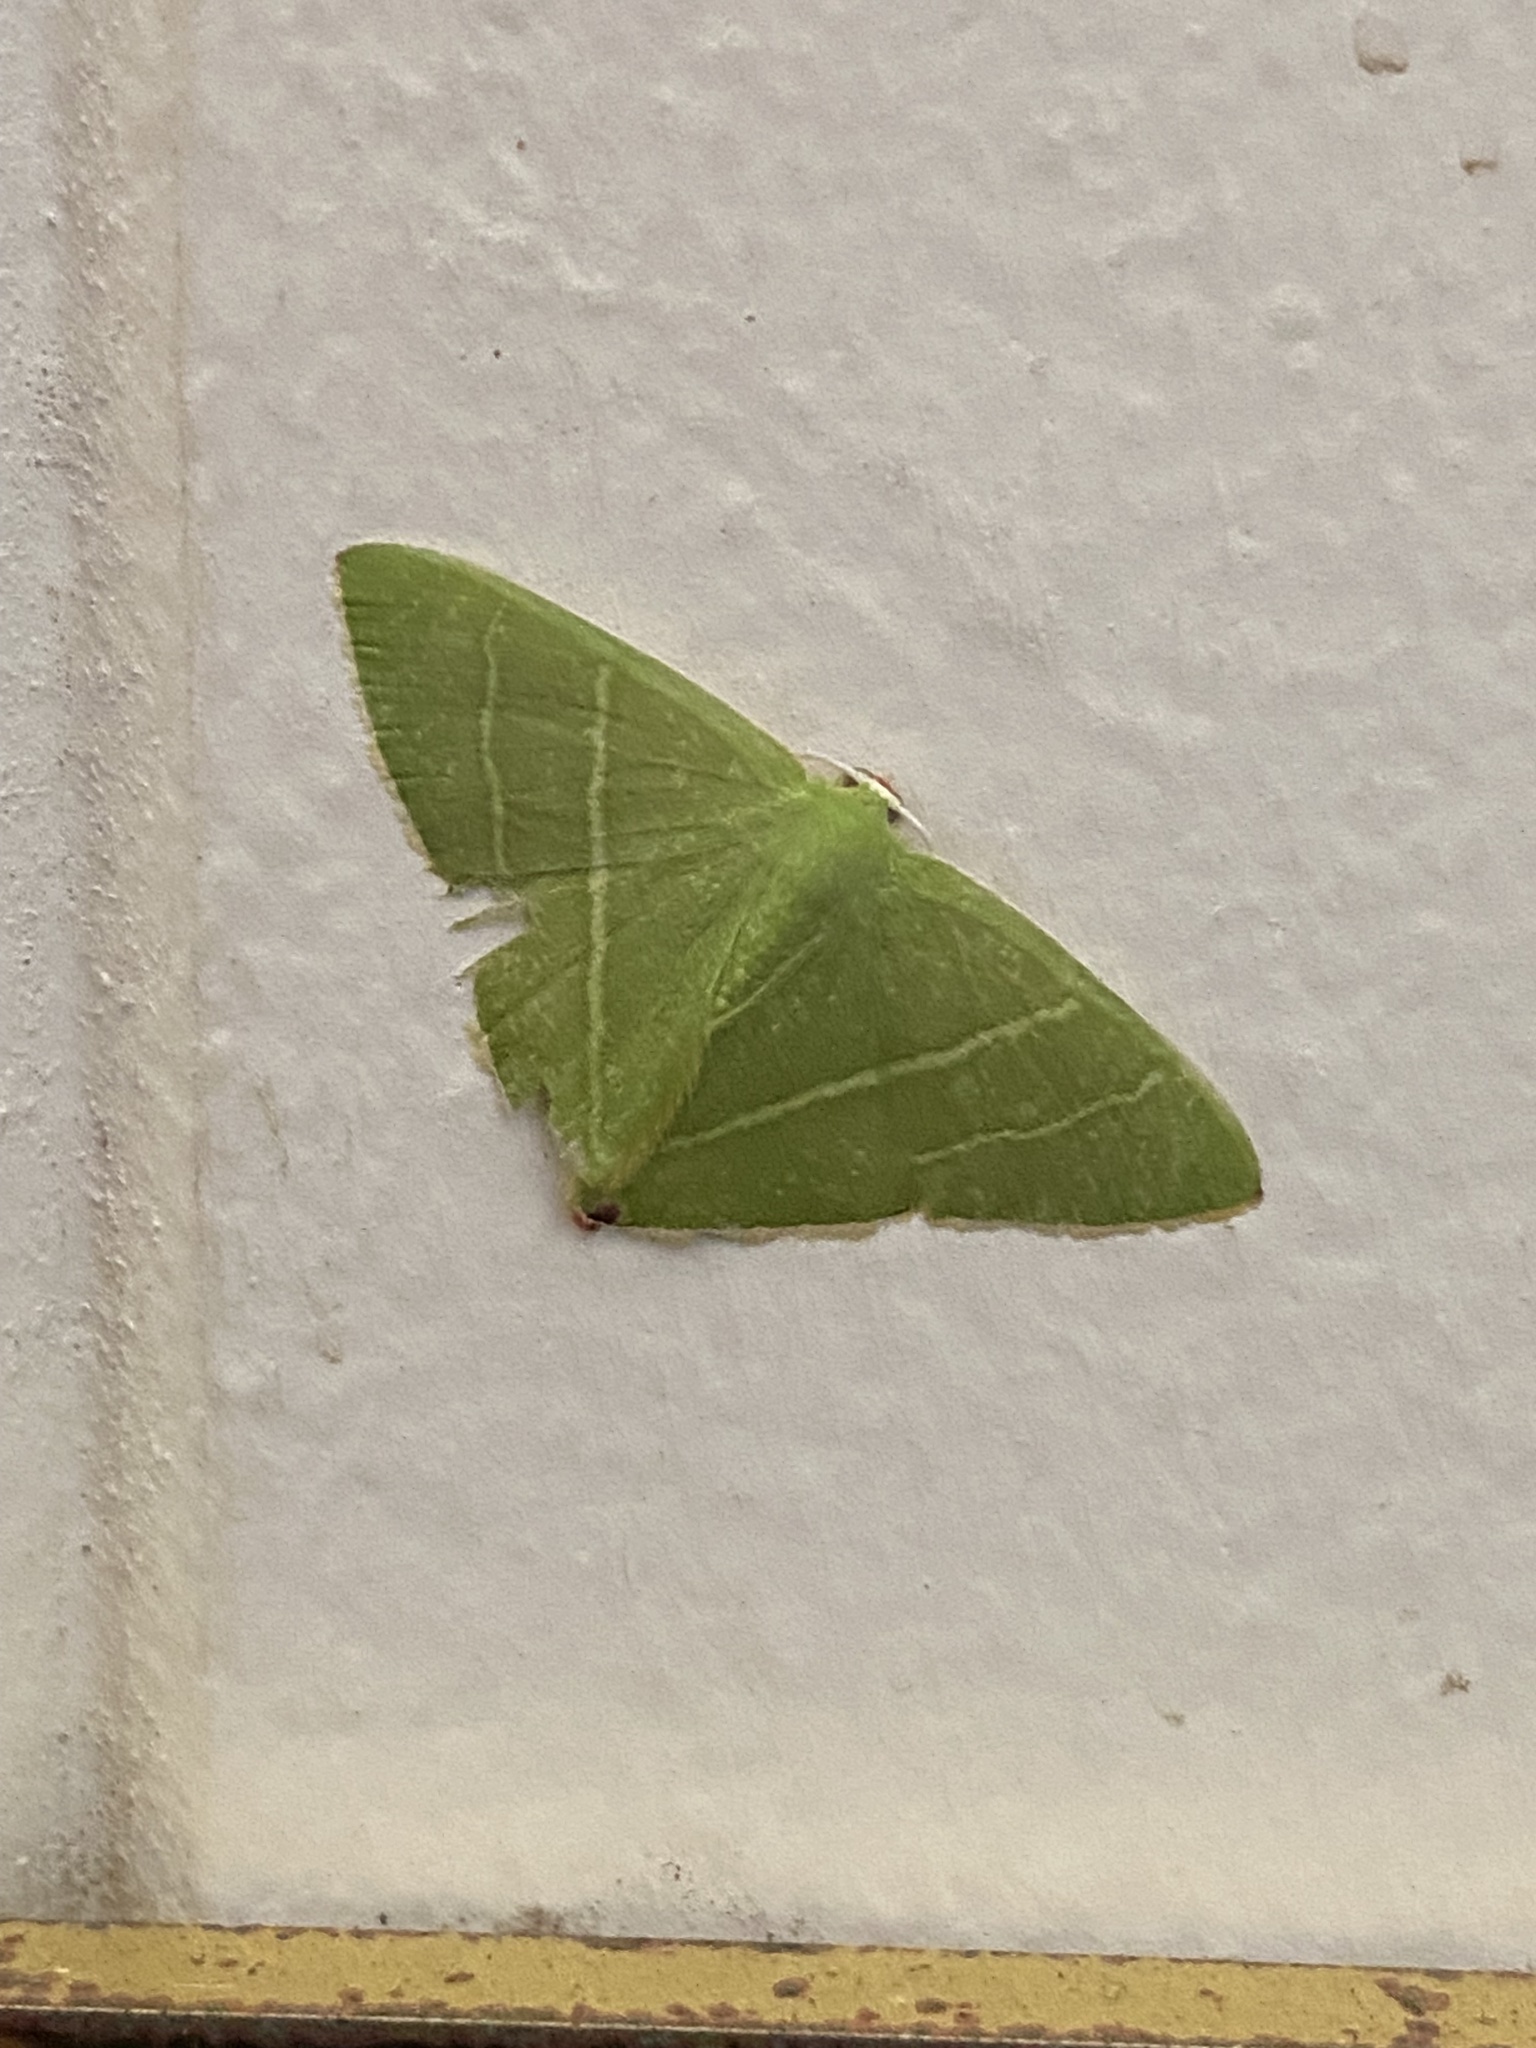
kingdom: Animalia
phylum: Arthropoda
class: Insecta
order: Lepidoptera
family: Geometridae
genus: Urolitha
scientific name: Urolitha bipunctifera
